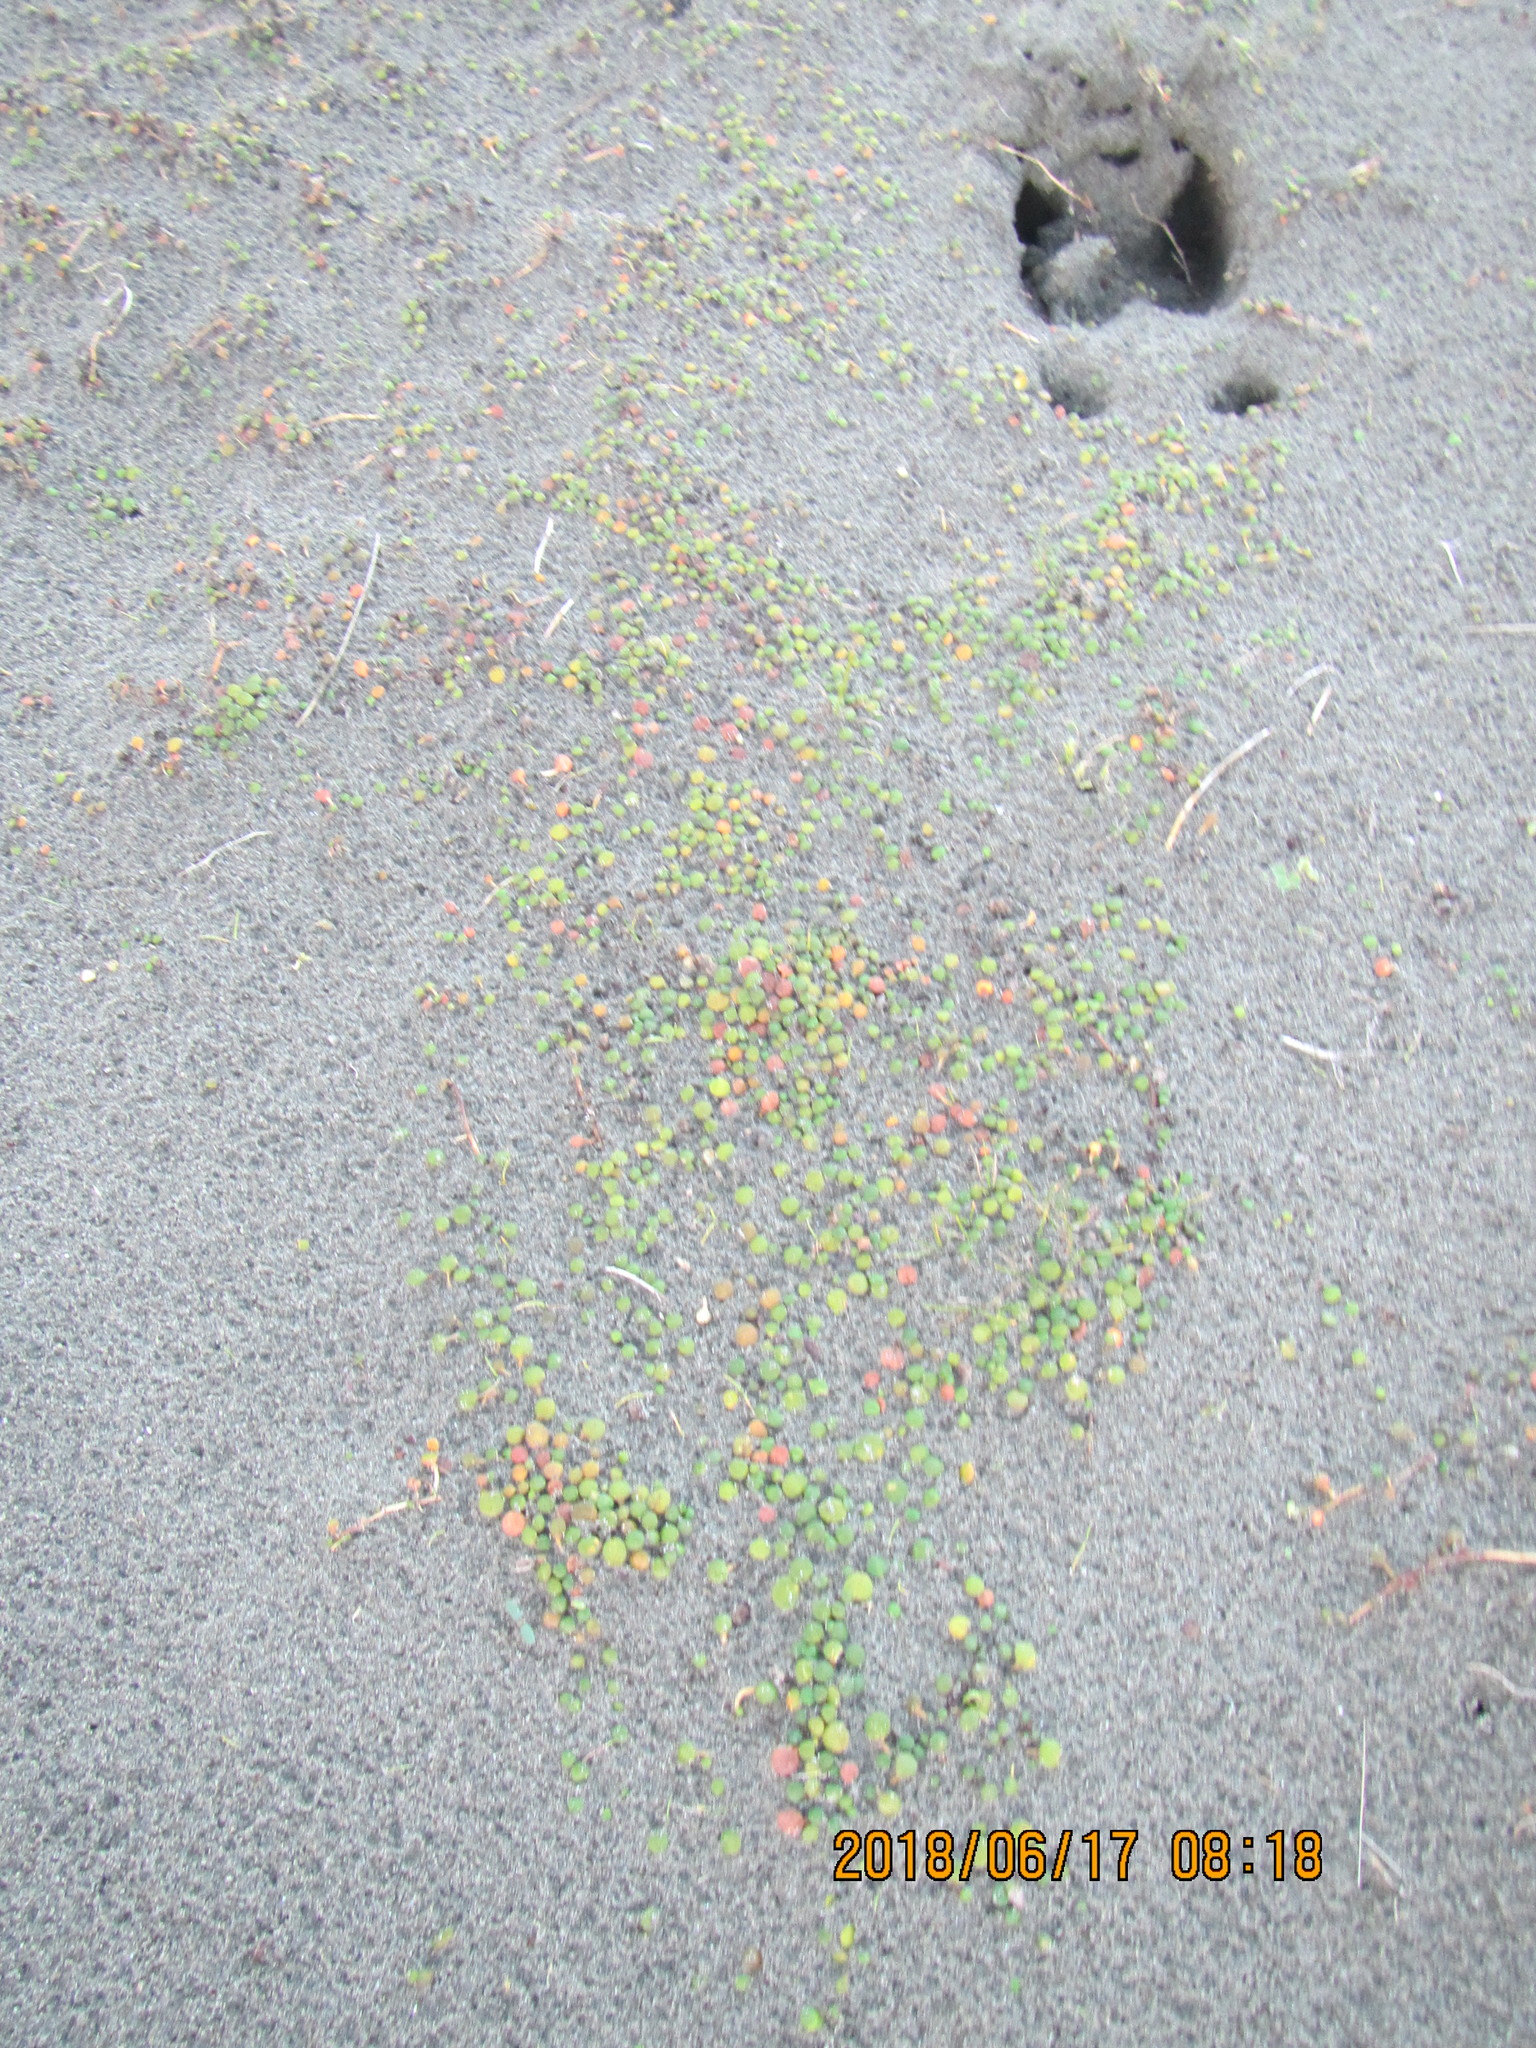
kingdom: Plantae
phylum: Tracheophyta
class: Magnoliopsida
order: Asterales
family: Goodeniaceae
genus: Goodenia
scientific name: Goodenia heenanii
